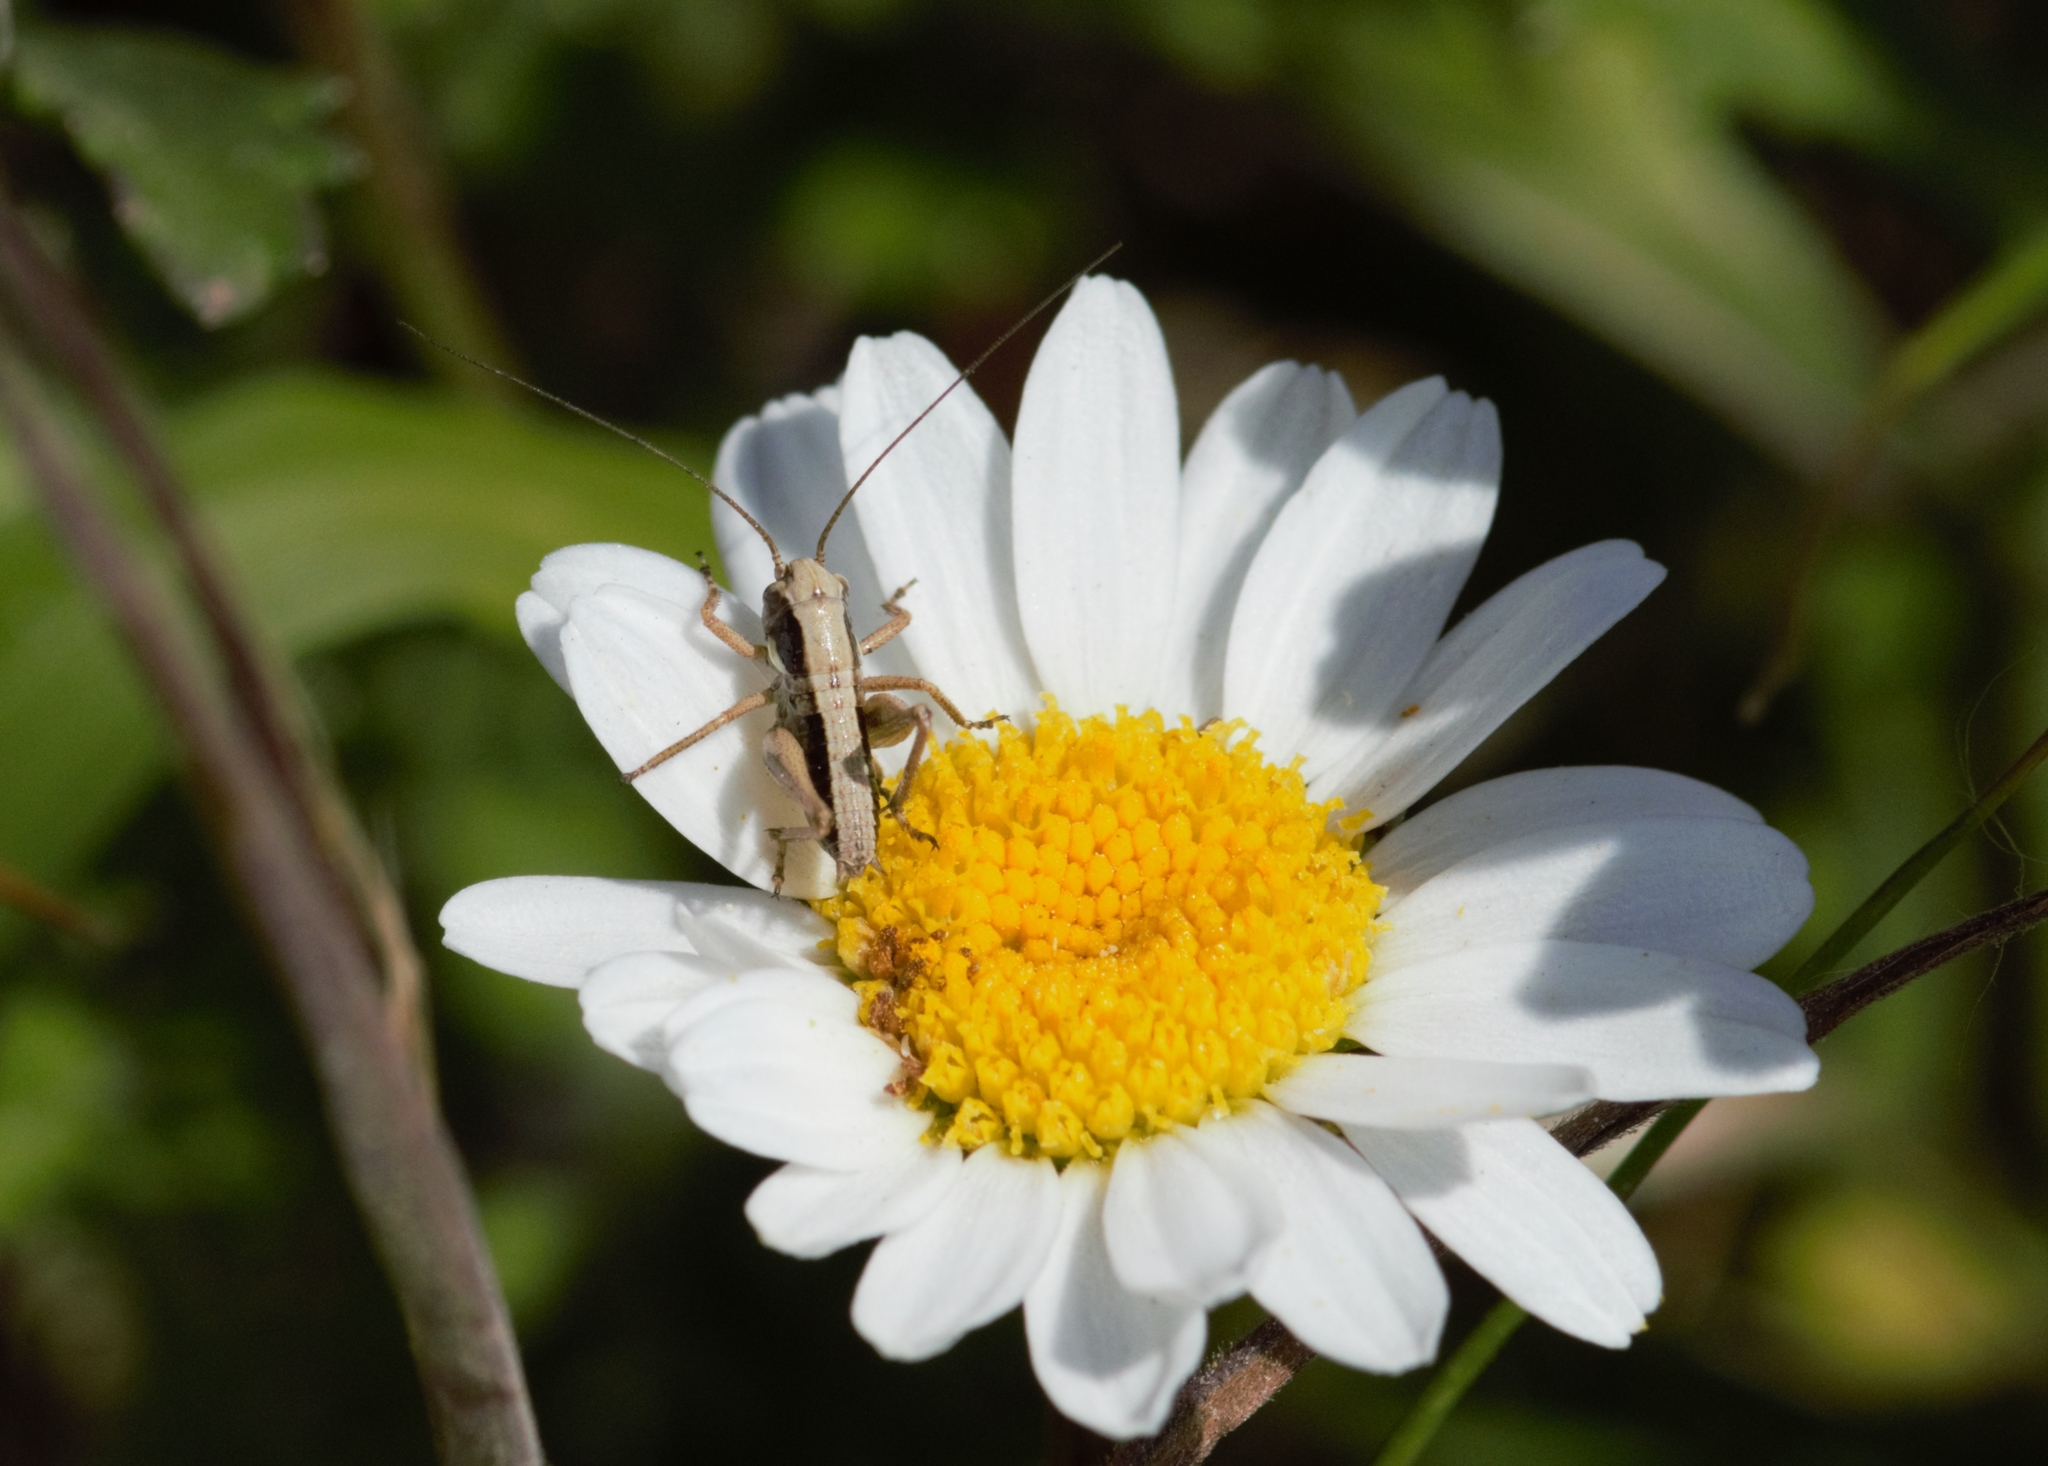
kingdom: Animalia
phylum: Arthropoda
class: Insecta
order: Orthoptera
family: Tettigoniidae
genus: Roeseliana
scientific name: Roeseliana roeselii
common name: Roesel's bush cricket
